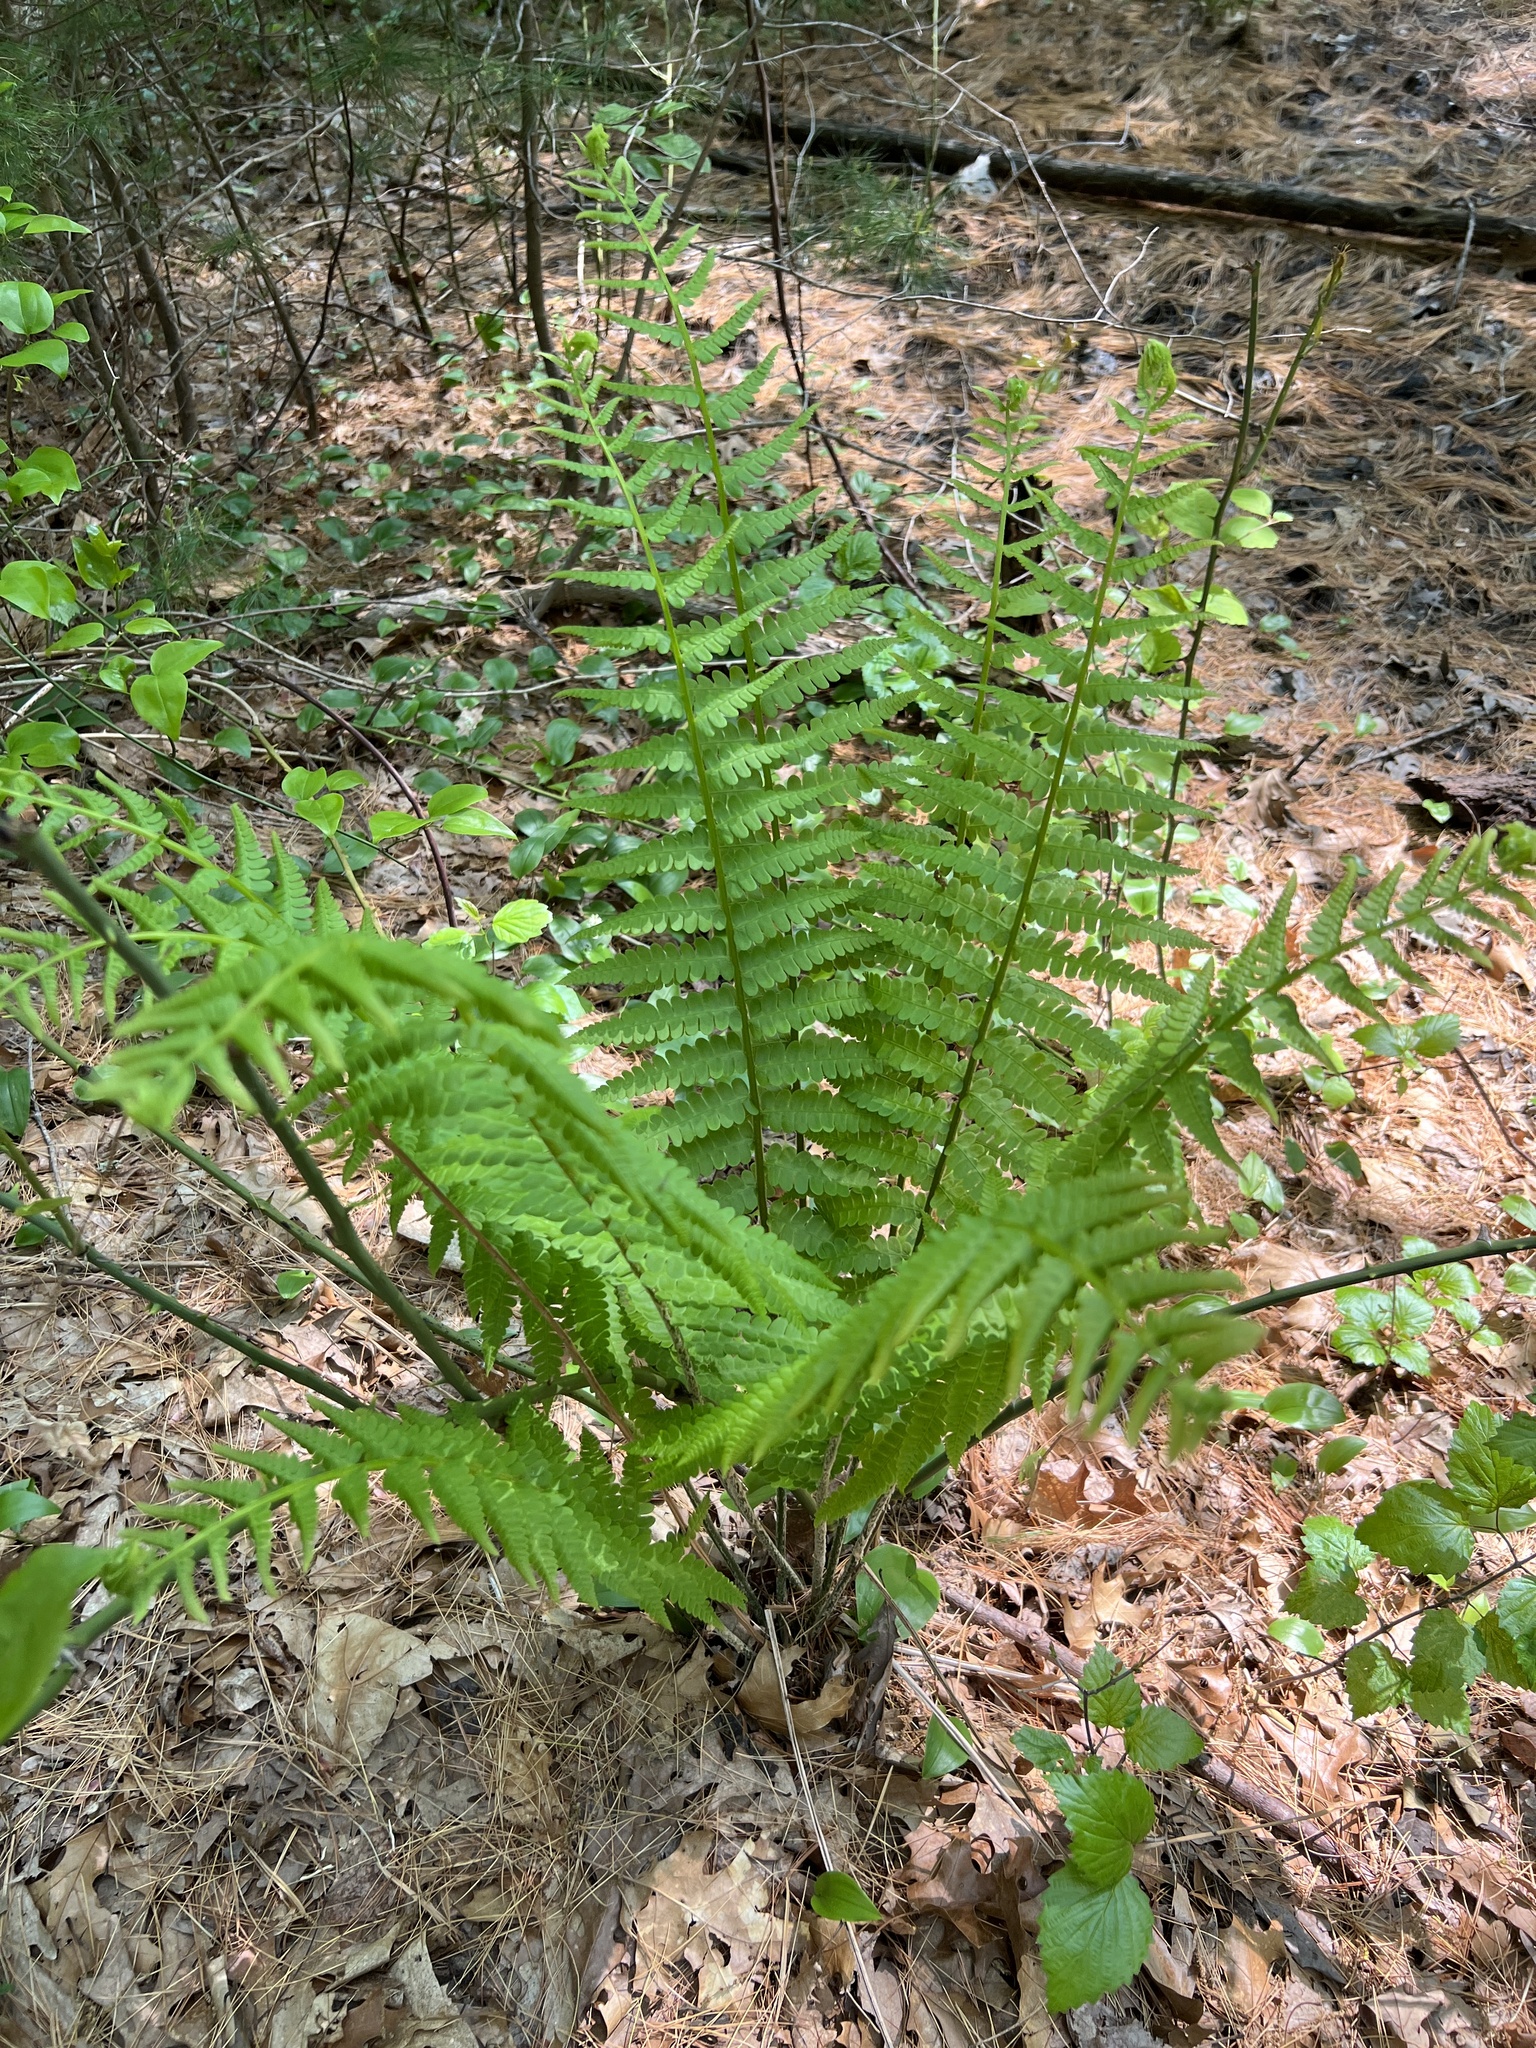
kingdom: Plantae
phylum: Tracheophyta
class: Polypodiopsida
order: Osmundales
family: Osmundaceae
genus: Osmundastrum
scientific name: Osmundastrum cinnamomeum
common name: Cinnamon fern
